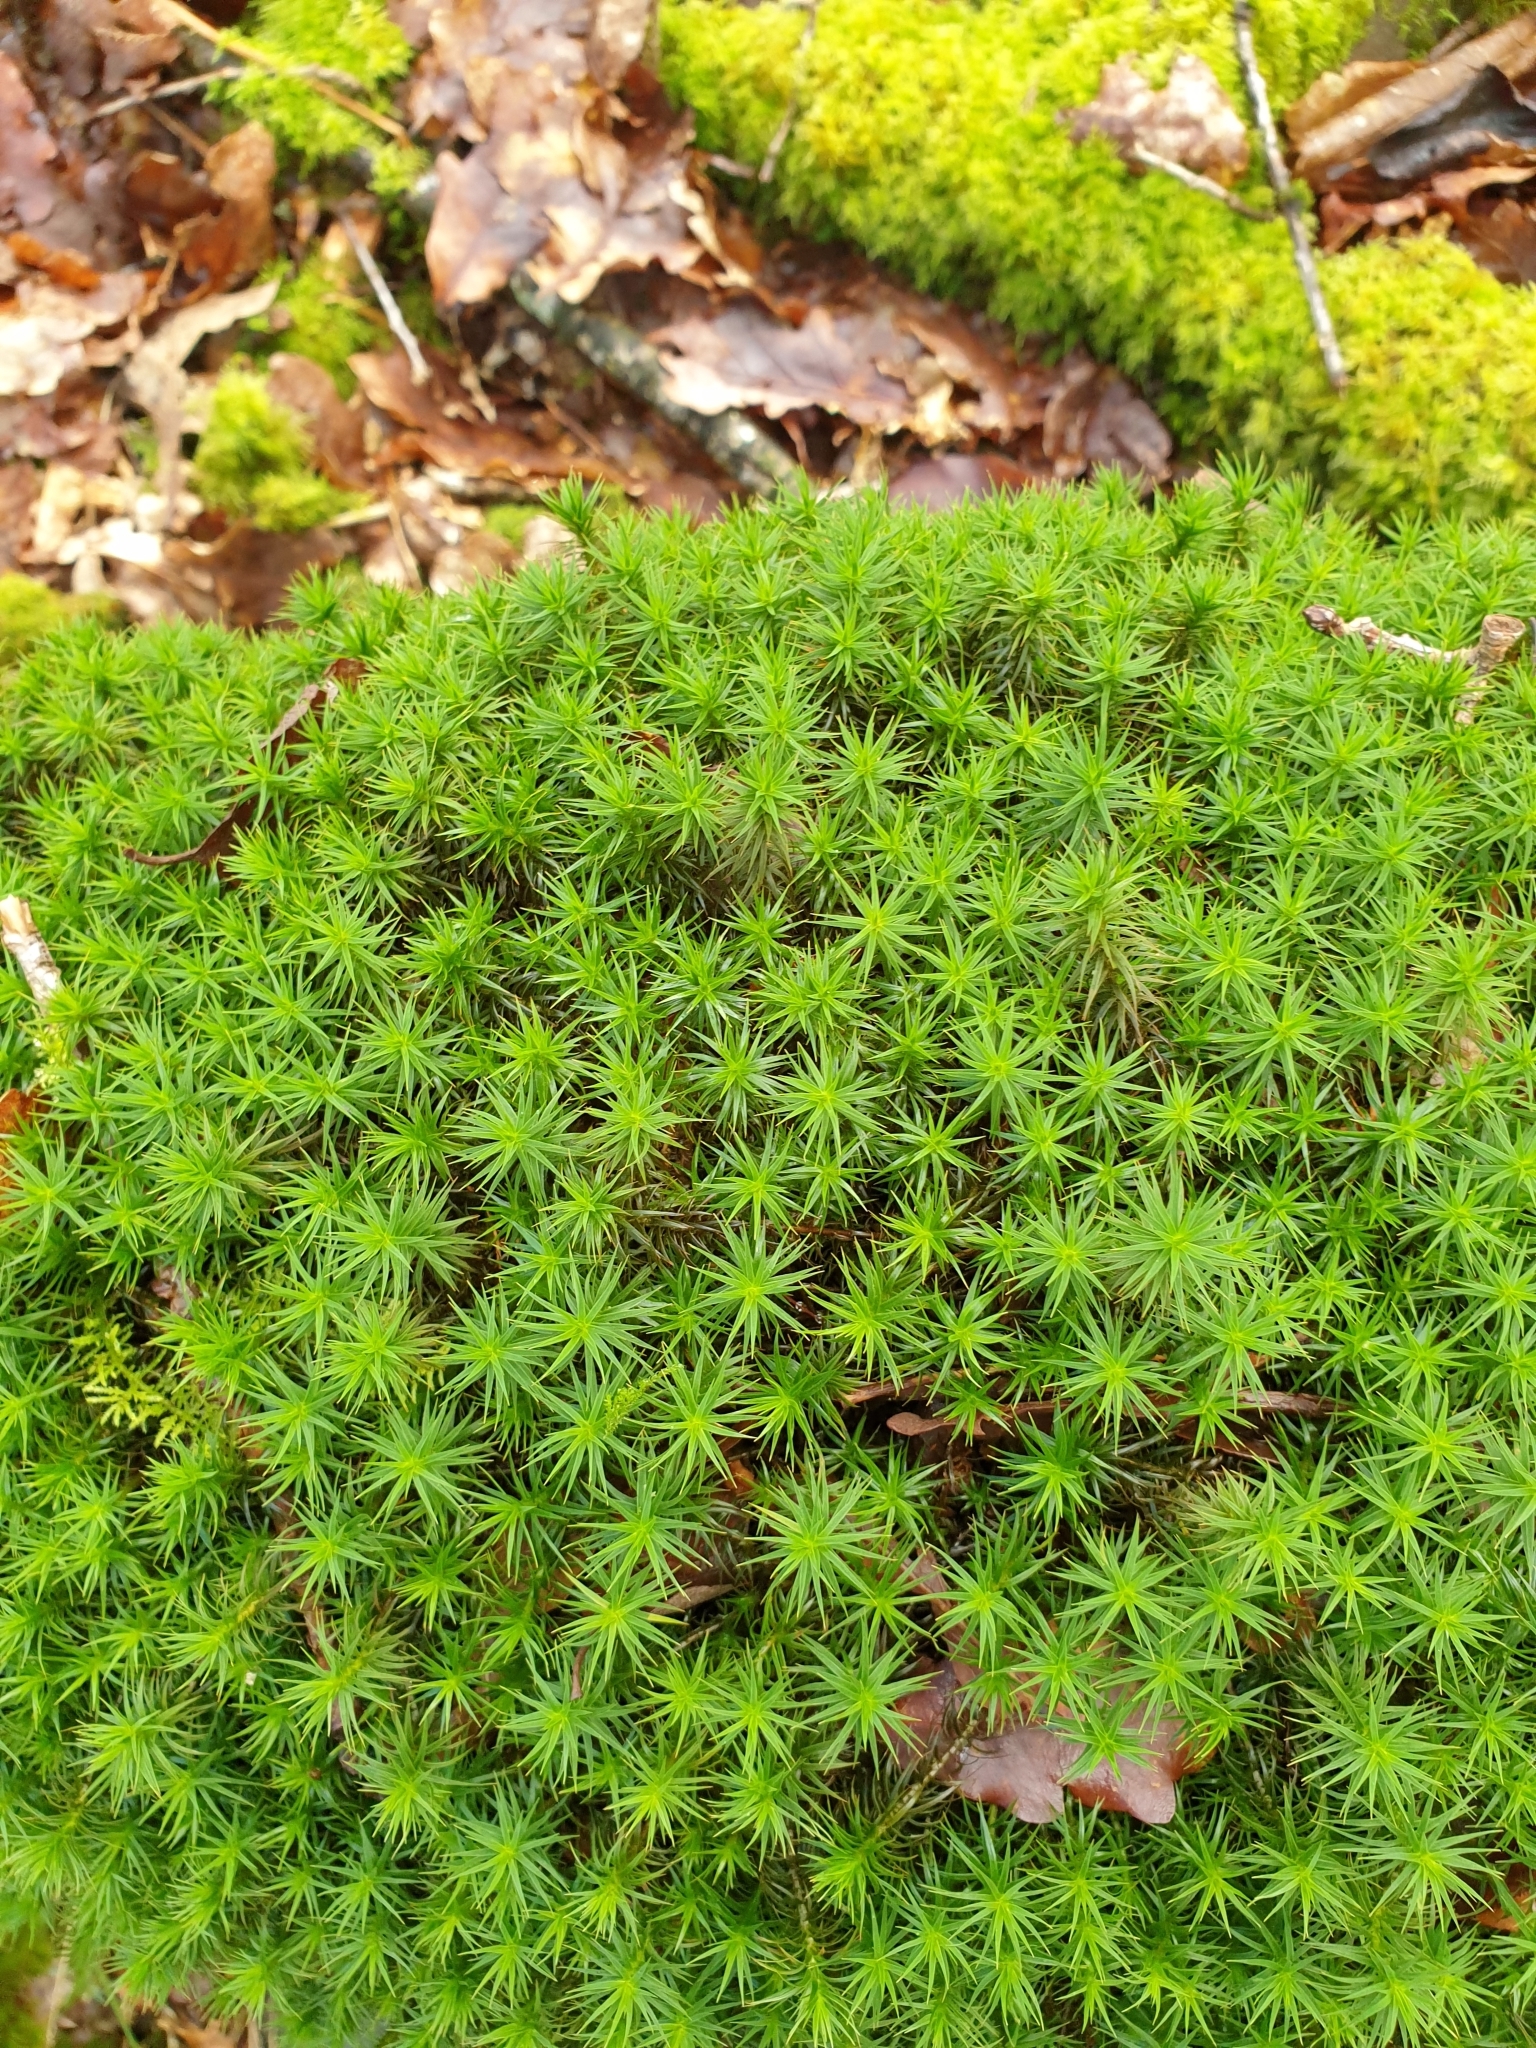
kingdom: Plantae
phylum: Bryophyta
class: Polytrichopsida
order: Polytrichales
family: Polytrichaceae
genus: Polytrichum
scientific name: Polytrichum formosum
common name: Bank haircap moss
